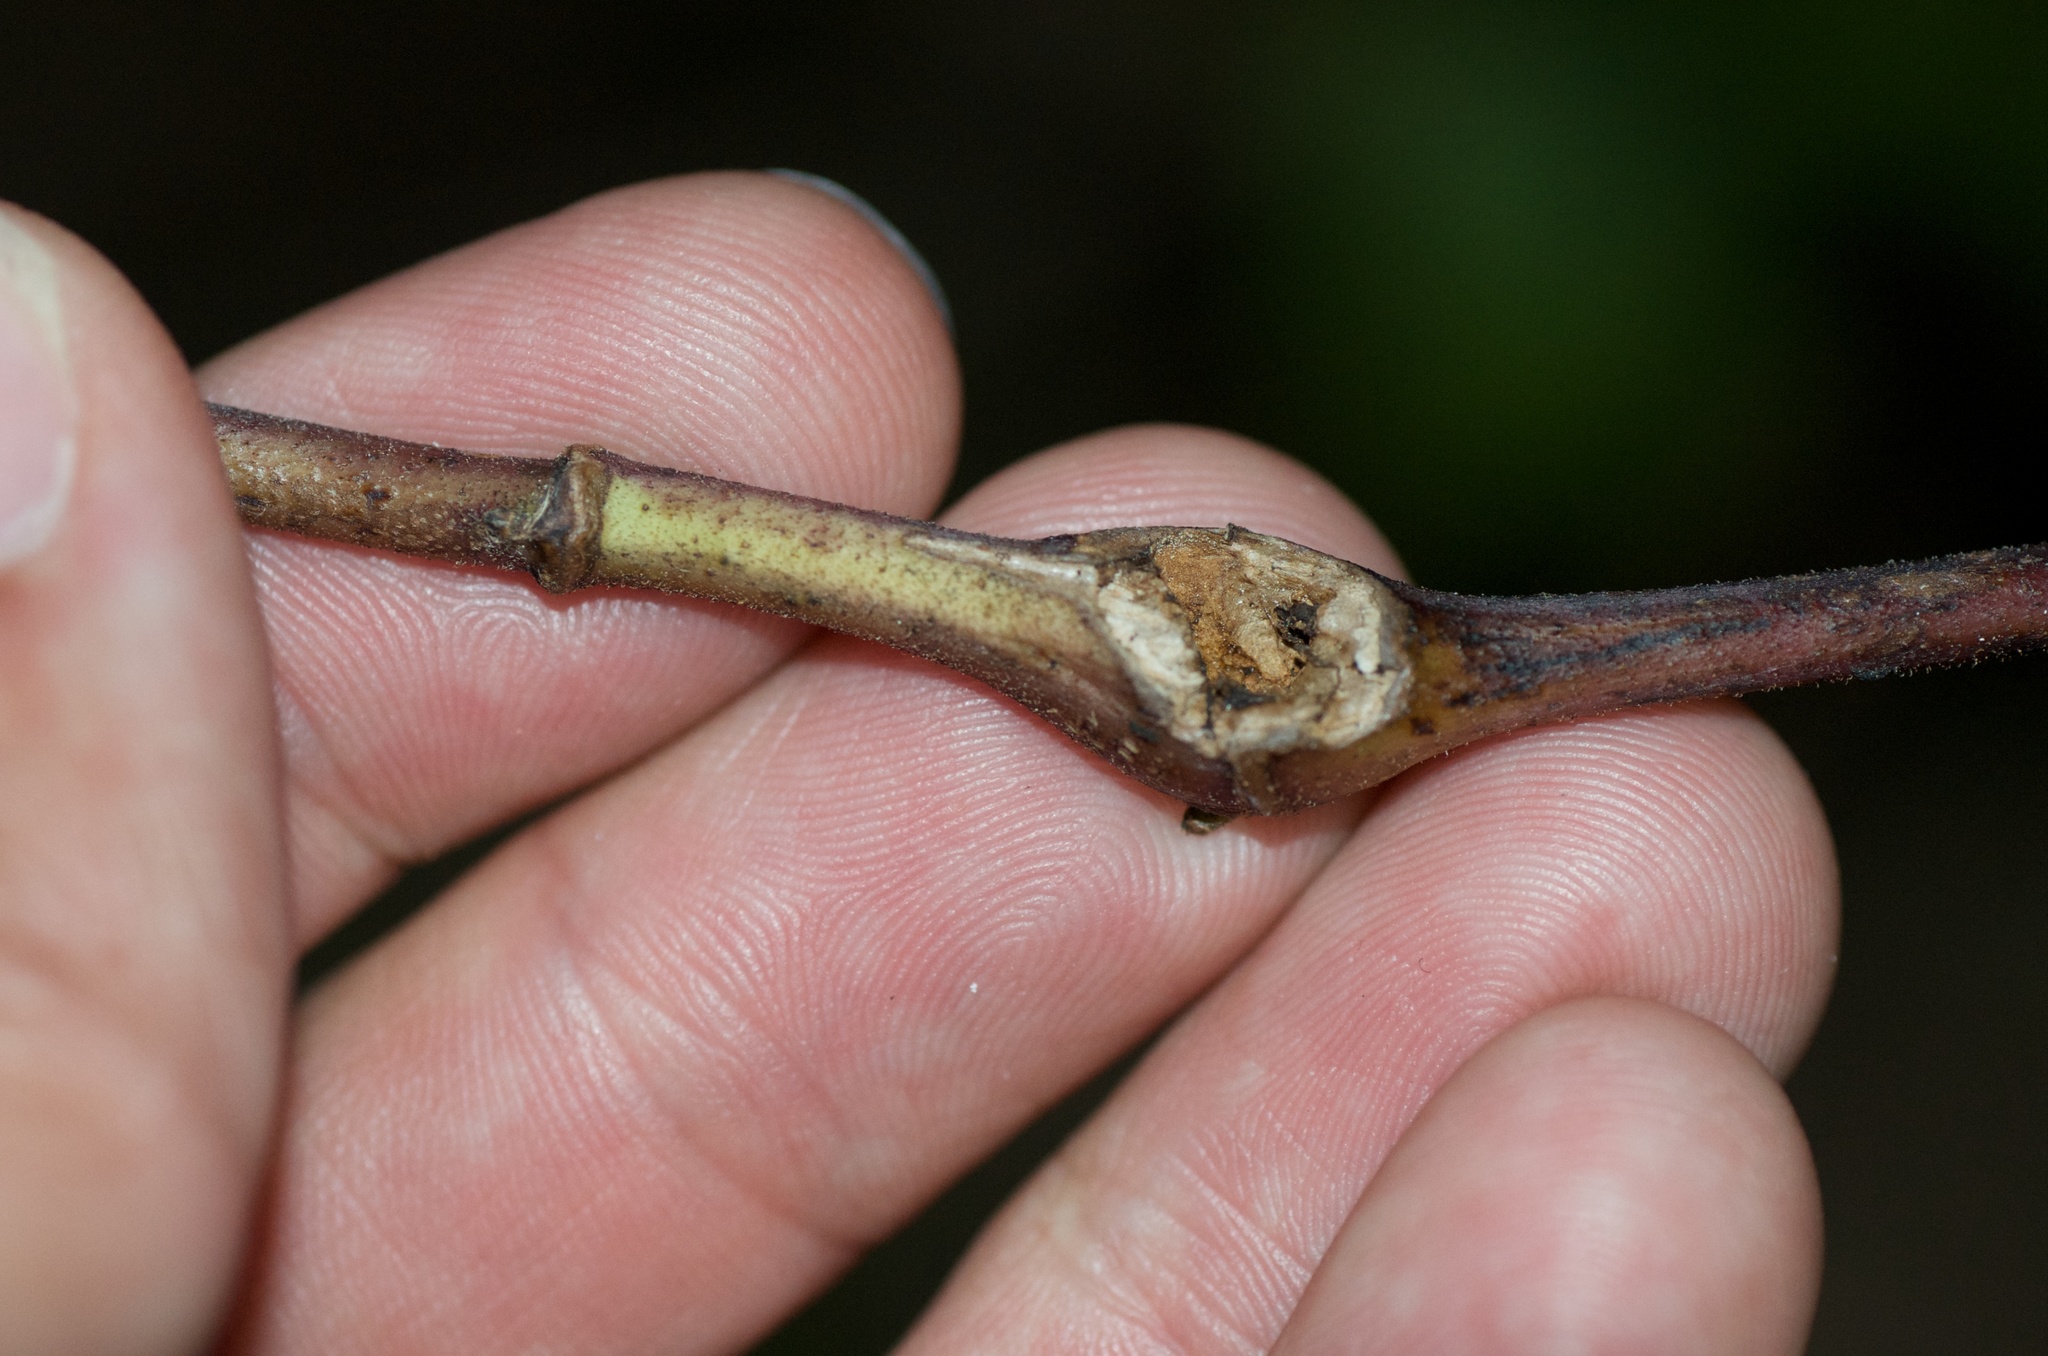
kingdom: Animalia
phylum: Arthropoda
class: Insecta
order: Diptera
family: Tephritidae
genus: Procecidochares
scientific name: Procecidochares utilis
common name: Eupatorium gall fly
